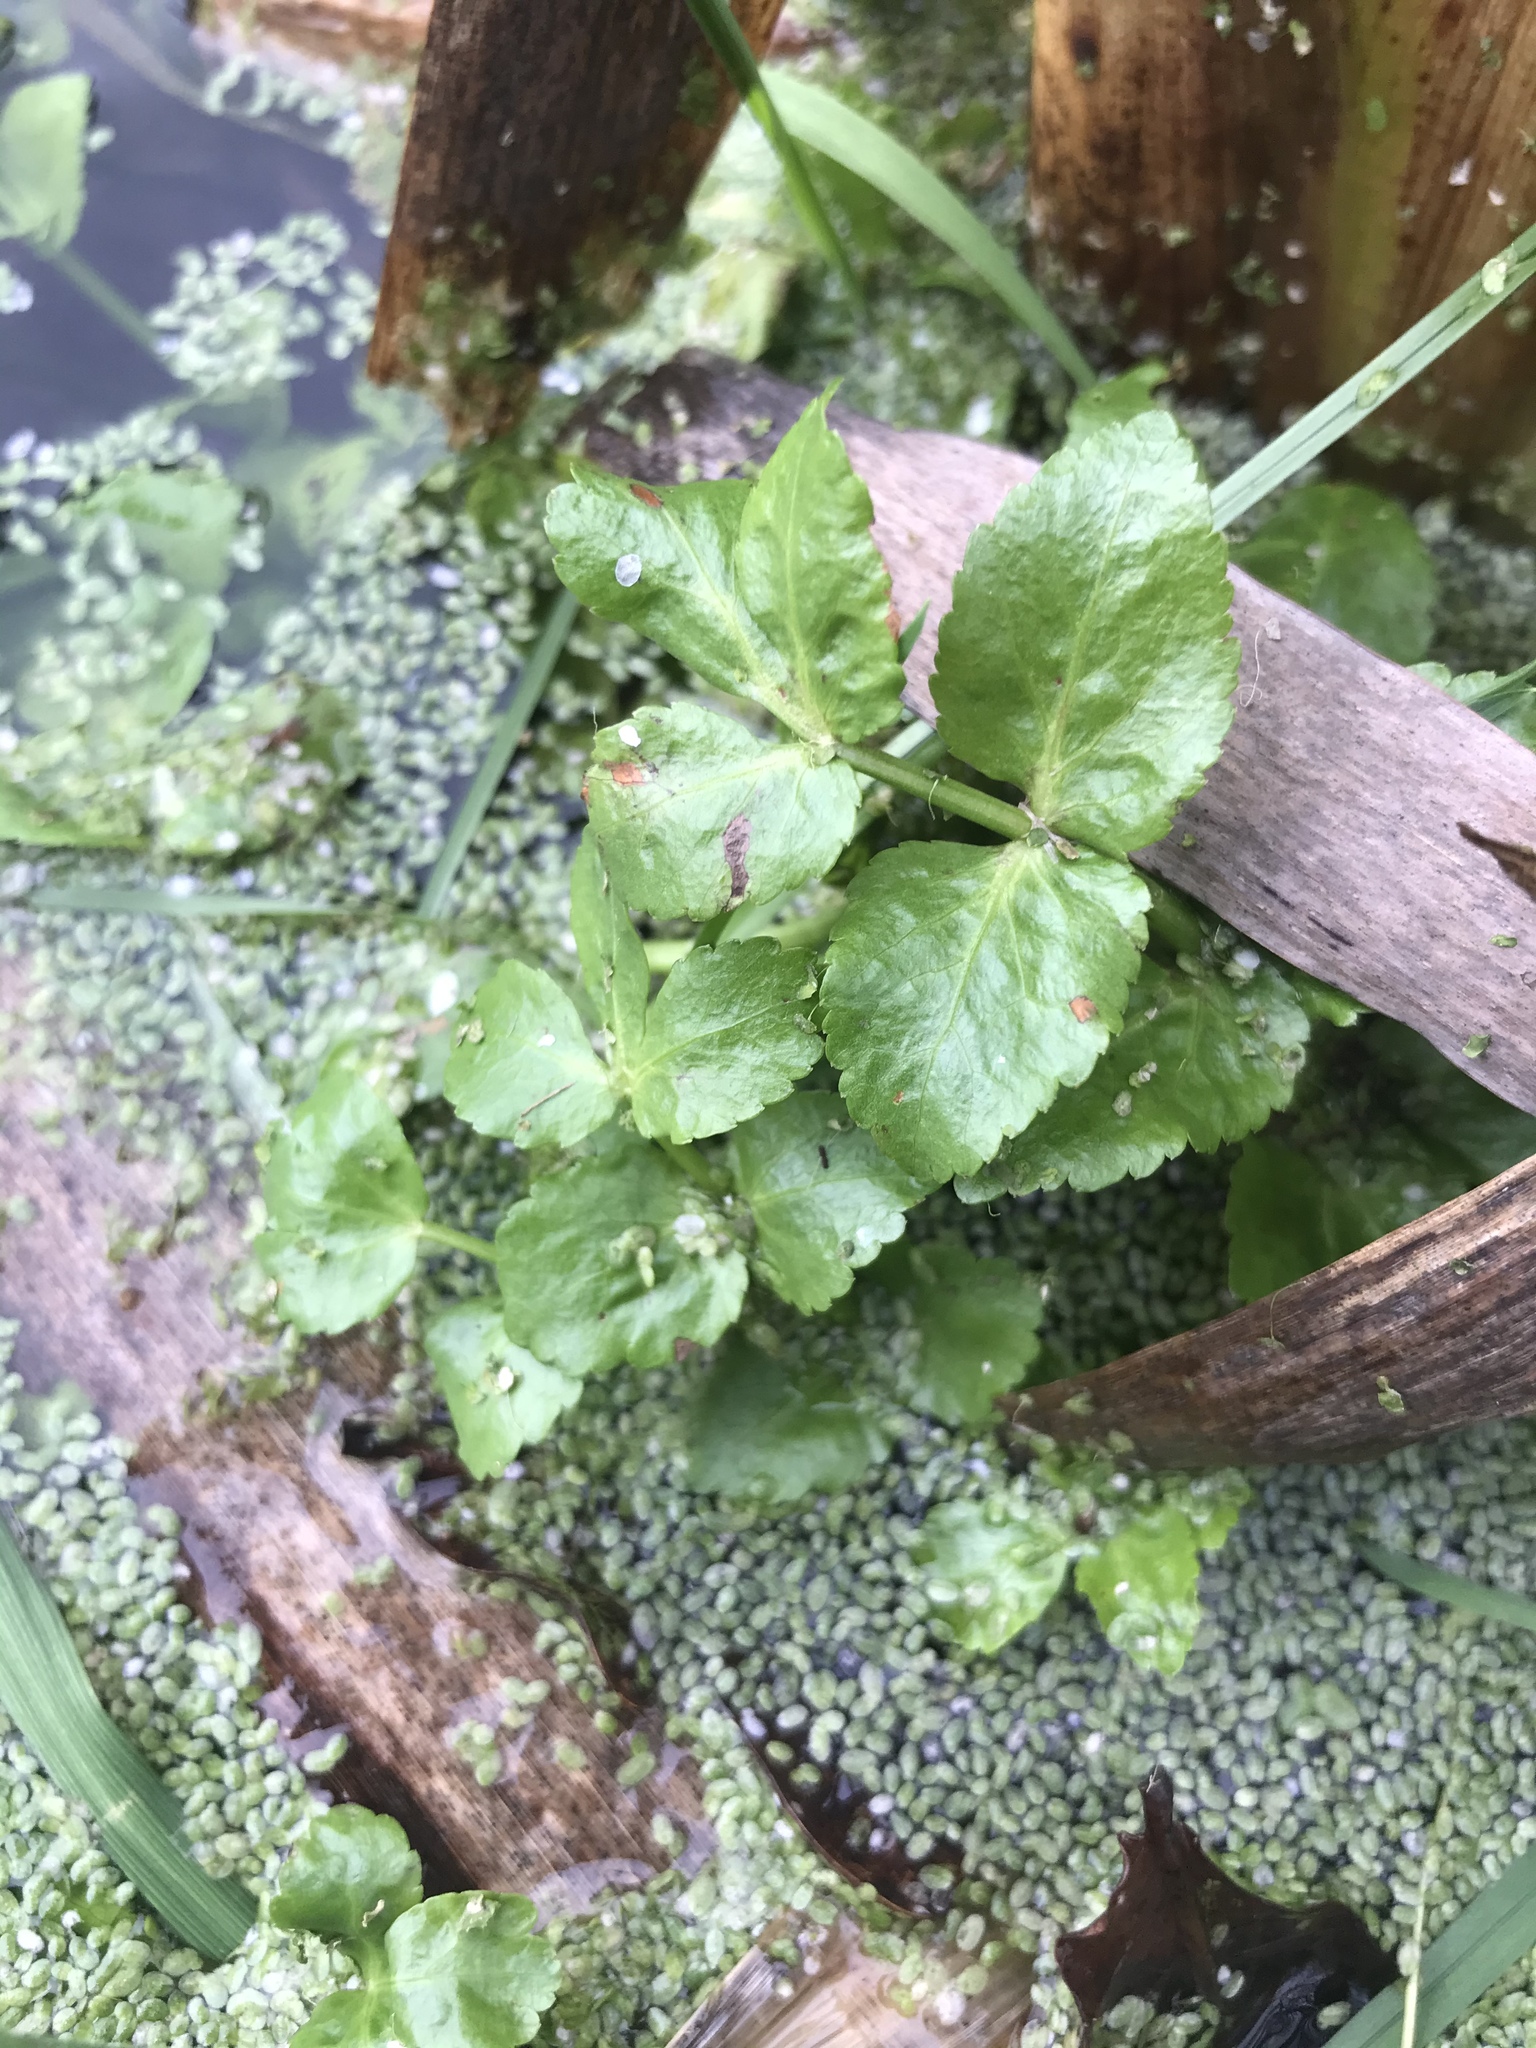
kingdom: Plantae
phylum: Tracheophyta
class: Magnoliopsida
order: Apiales
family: Apiaceae
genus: Helosciadium
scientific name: Helosciadium nodiflorum
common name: Fool's-watercress
